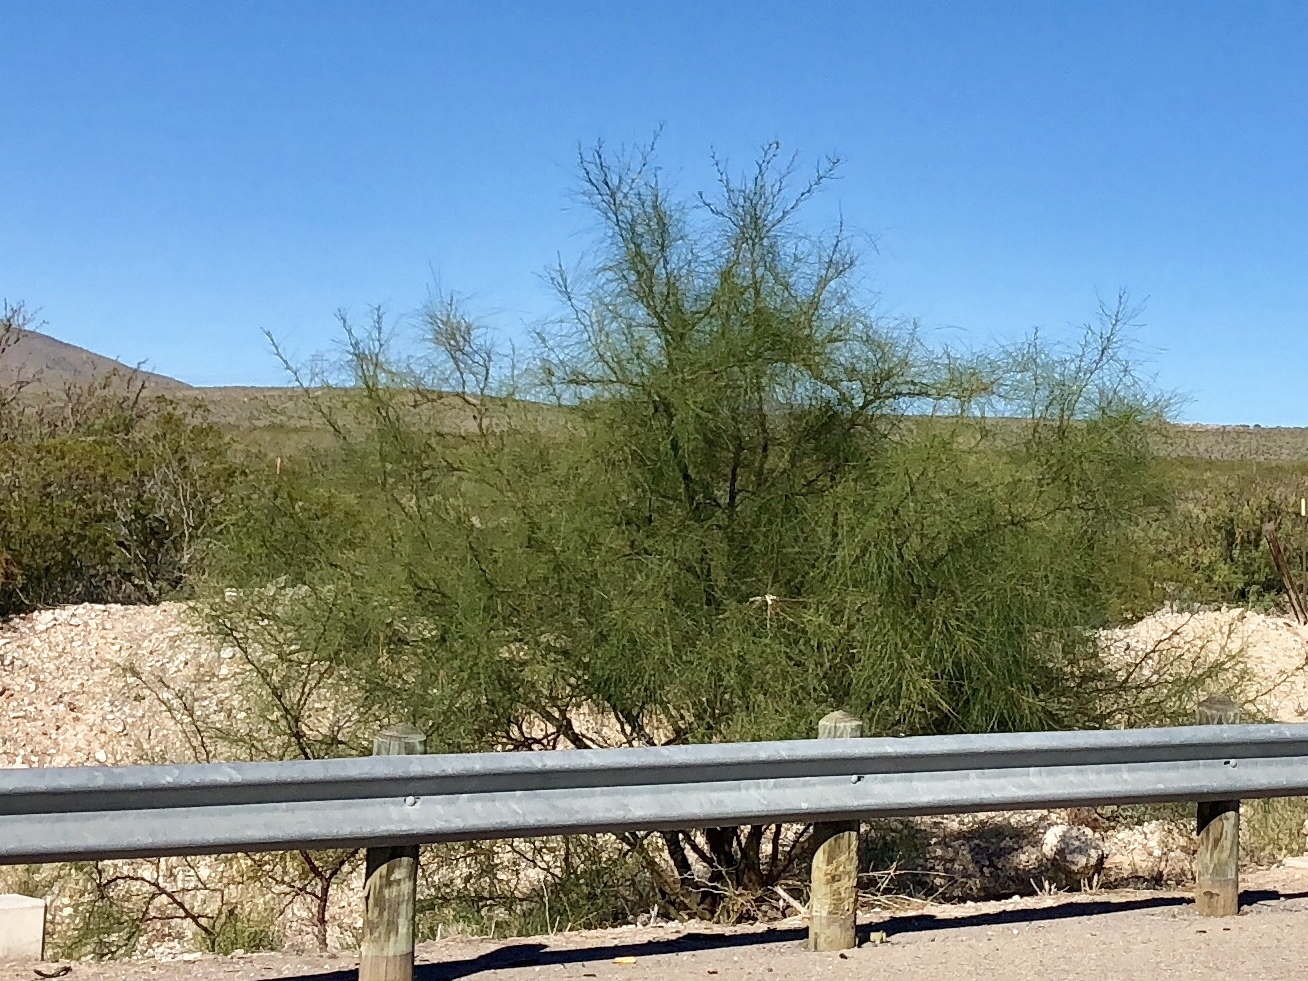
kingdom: Plantae
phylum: Tracheophyta
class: Magnoliopsida
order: Fabales
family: Fabaceae
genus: Parkinsonia
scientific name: Parkinsonia aculeata
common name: Jerusalem thorn
